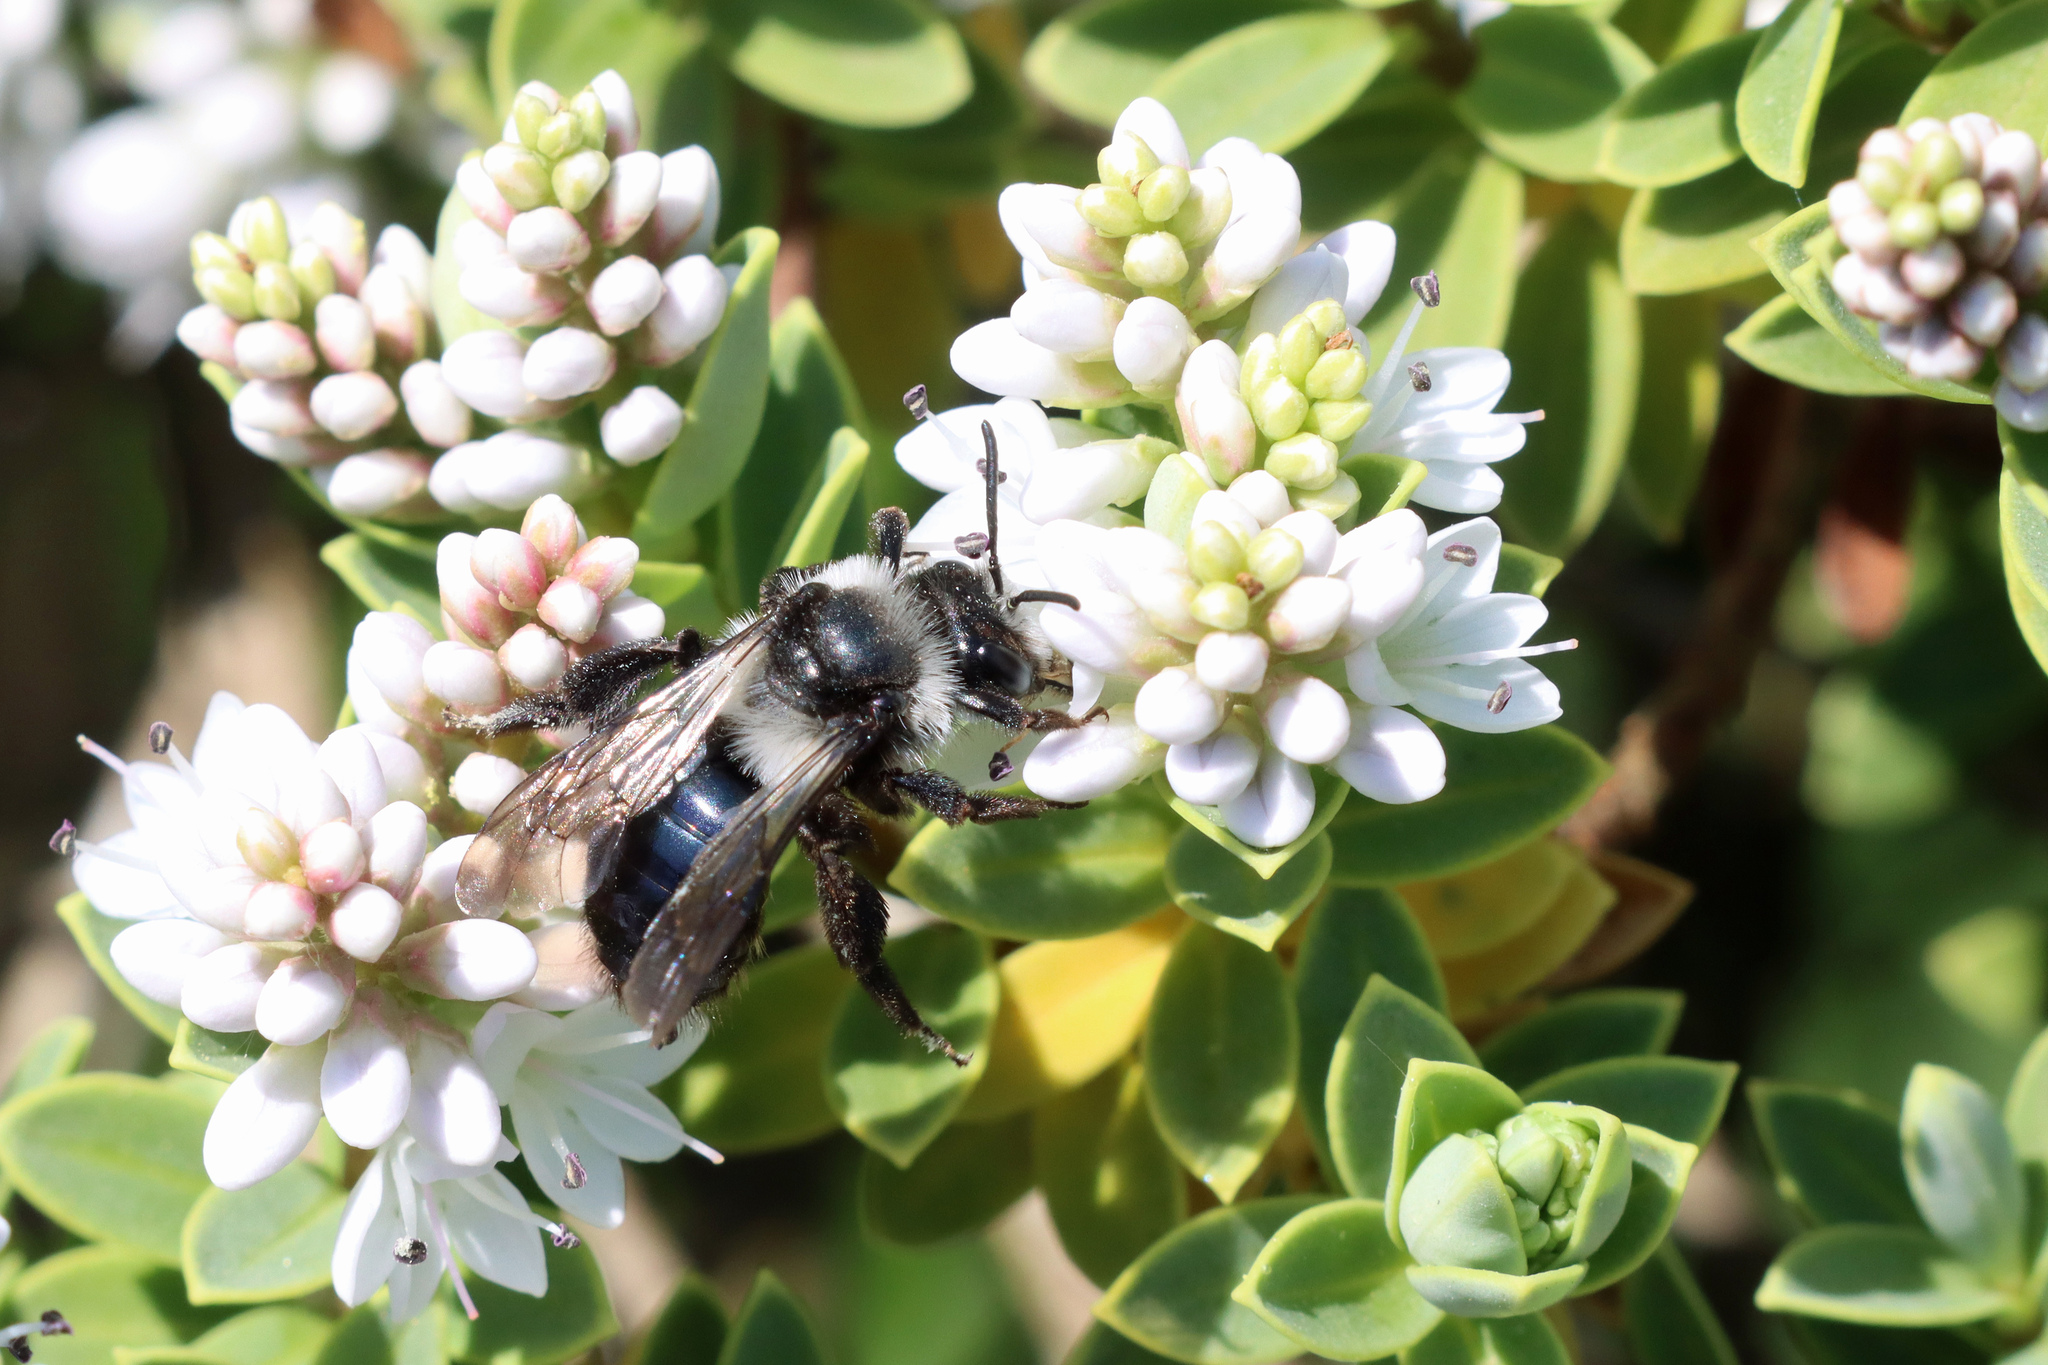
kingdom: Animalia
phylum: Arthropoda
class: Insecta
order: Hymenoptera
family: Andrenidae
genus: Andrena
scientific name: Andrena cineraria
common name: Ashy mining bee
